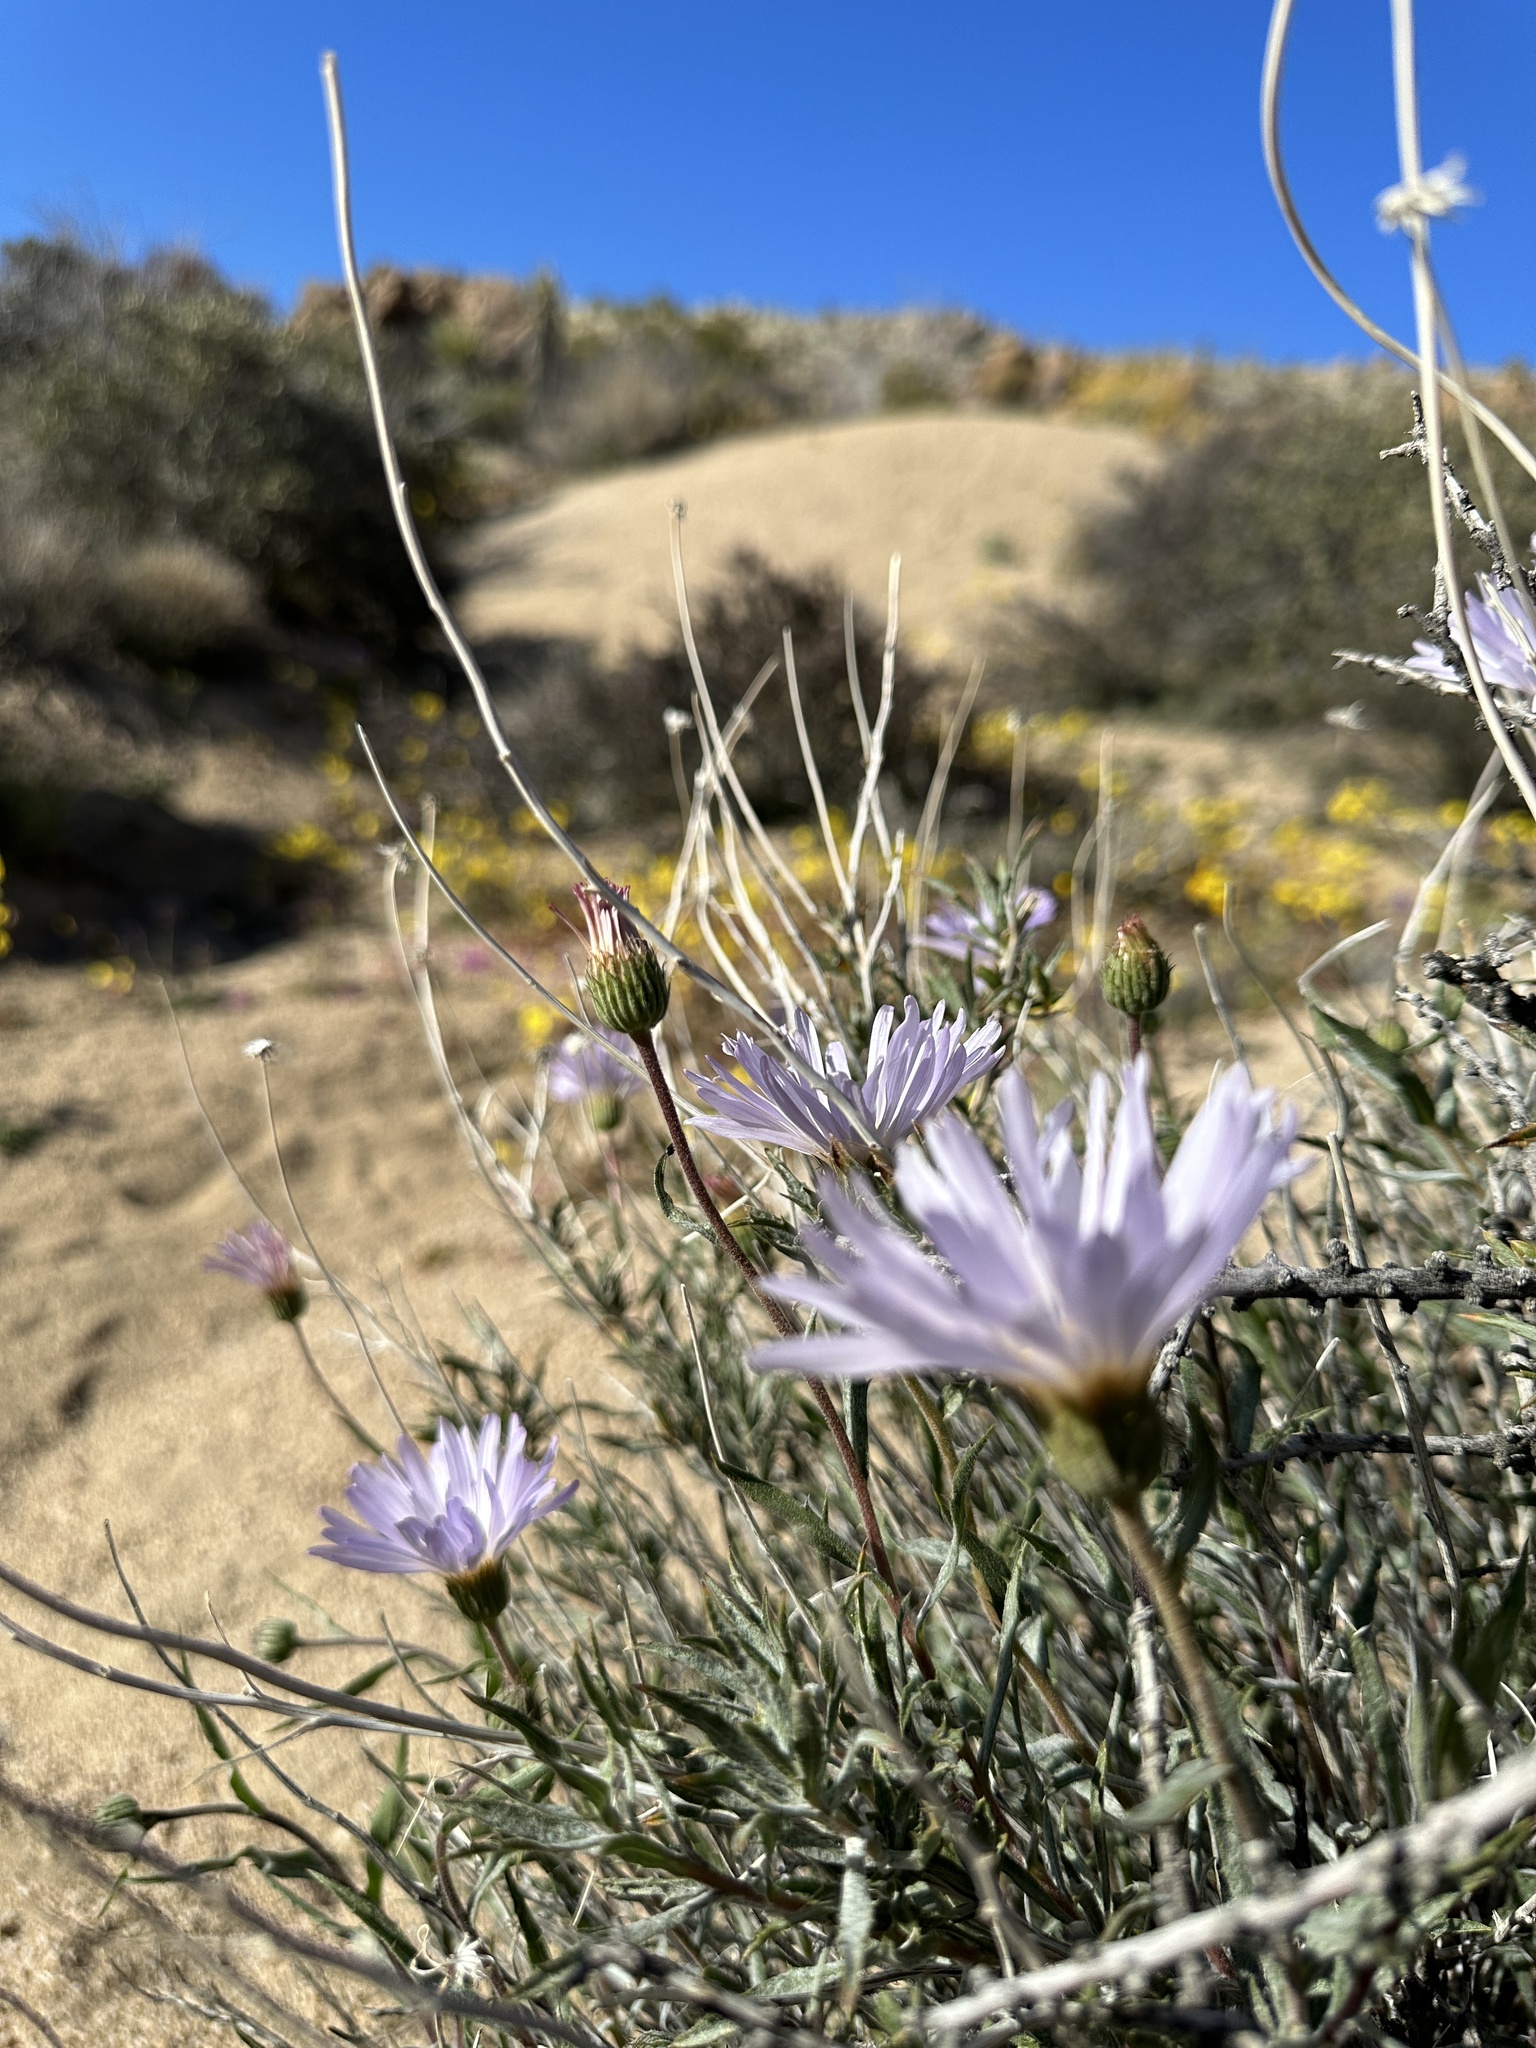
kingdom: Plantae
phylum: Tracheophyta
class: Magnoliopsida
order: Asterales
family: Asteraceae
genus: Xylorhiza
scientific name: Xylorhiza tortifolia
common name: Hurt-leaf woody-aster
